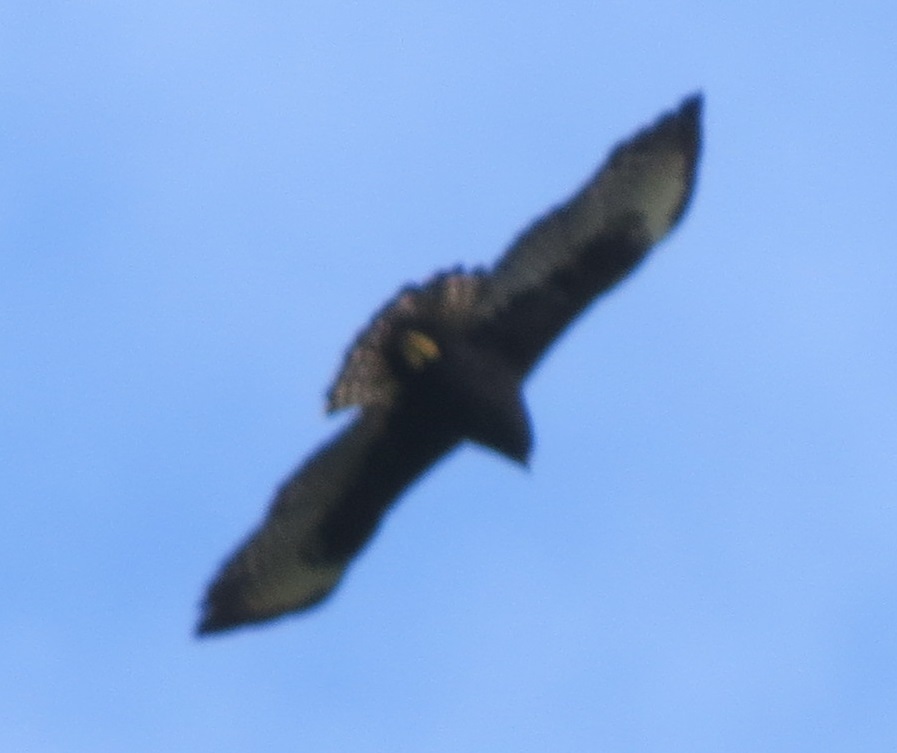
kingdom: Animalia
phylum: Chordata
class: Aves
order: Accipitriformes
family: Accipitridae
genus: Buteo
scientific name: Buteo brachyurus
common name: Short-tailed hawk
